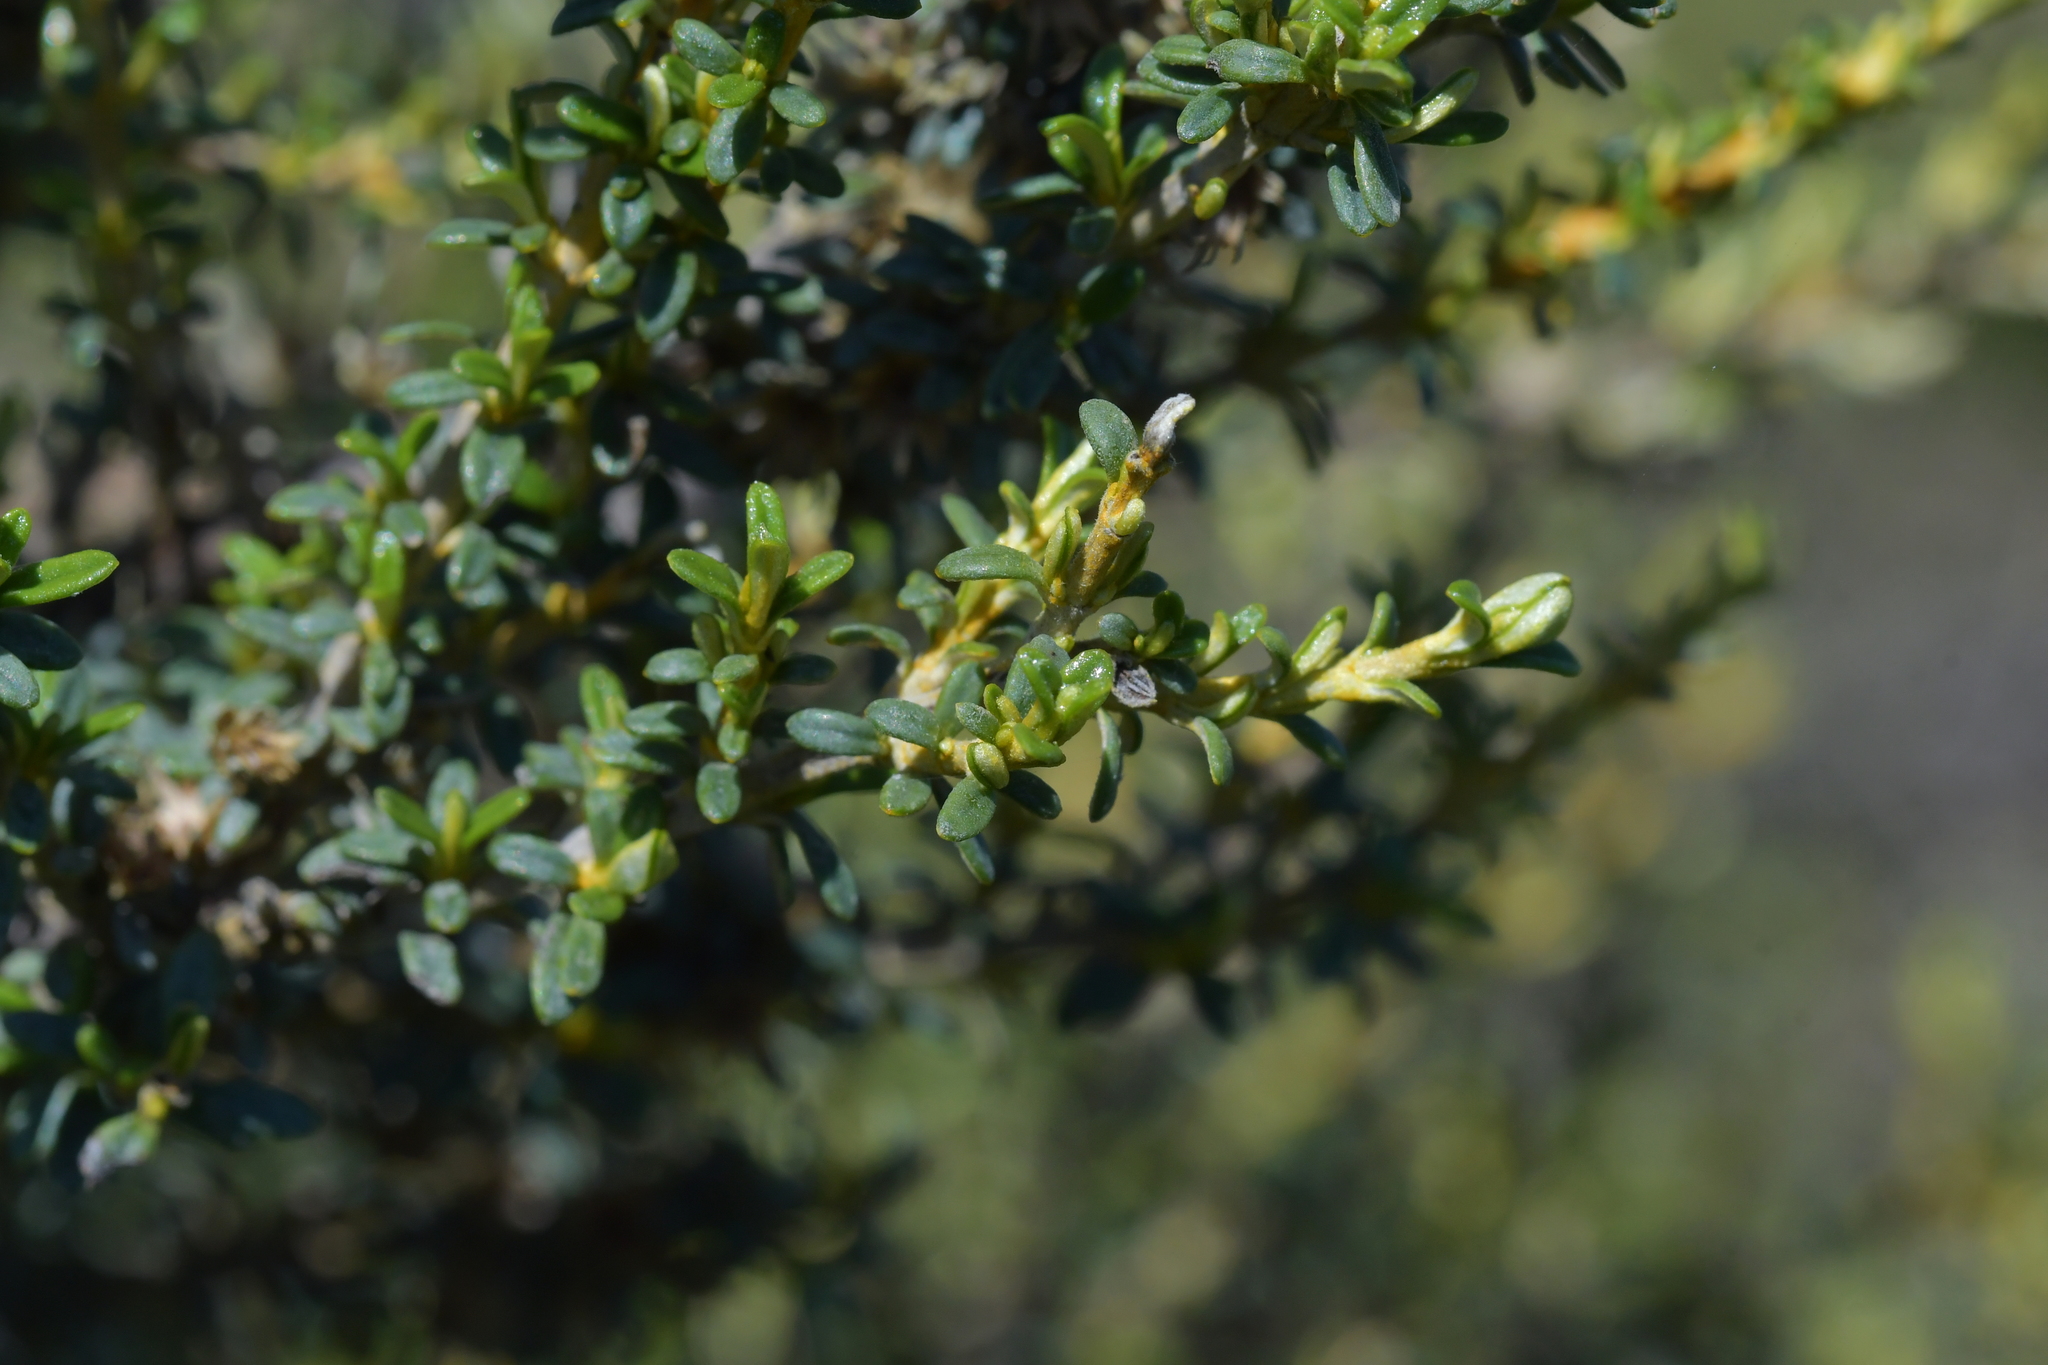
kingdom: Plantae
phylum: Tracheophyta
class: Magnoliopsida
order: Asterales
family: Asteraceae
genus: Olearia
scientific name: Olearia solandri
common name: Coastal daisybush
